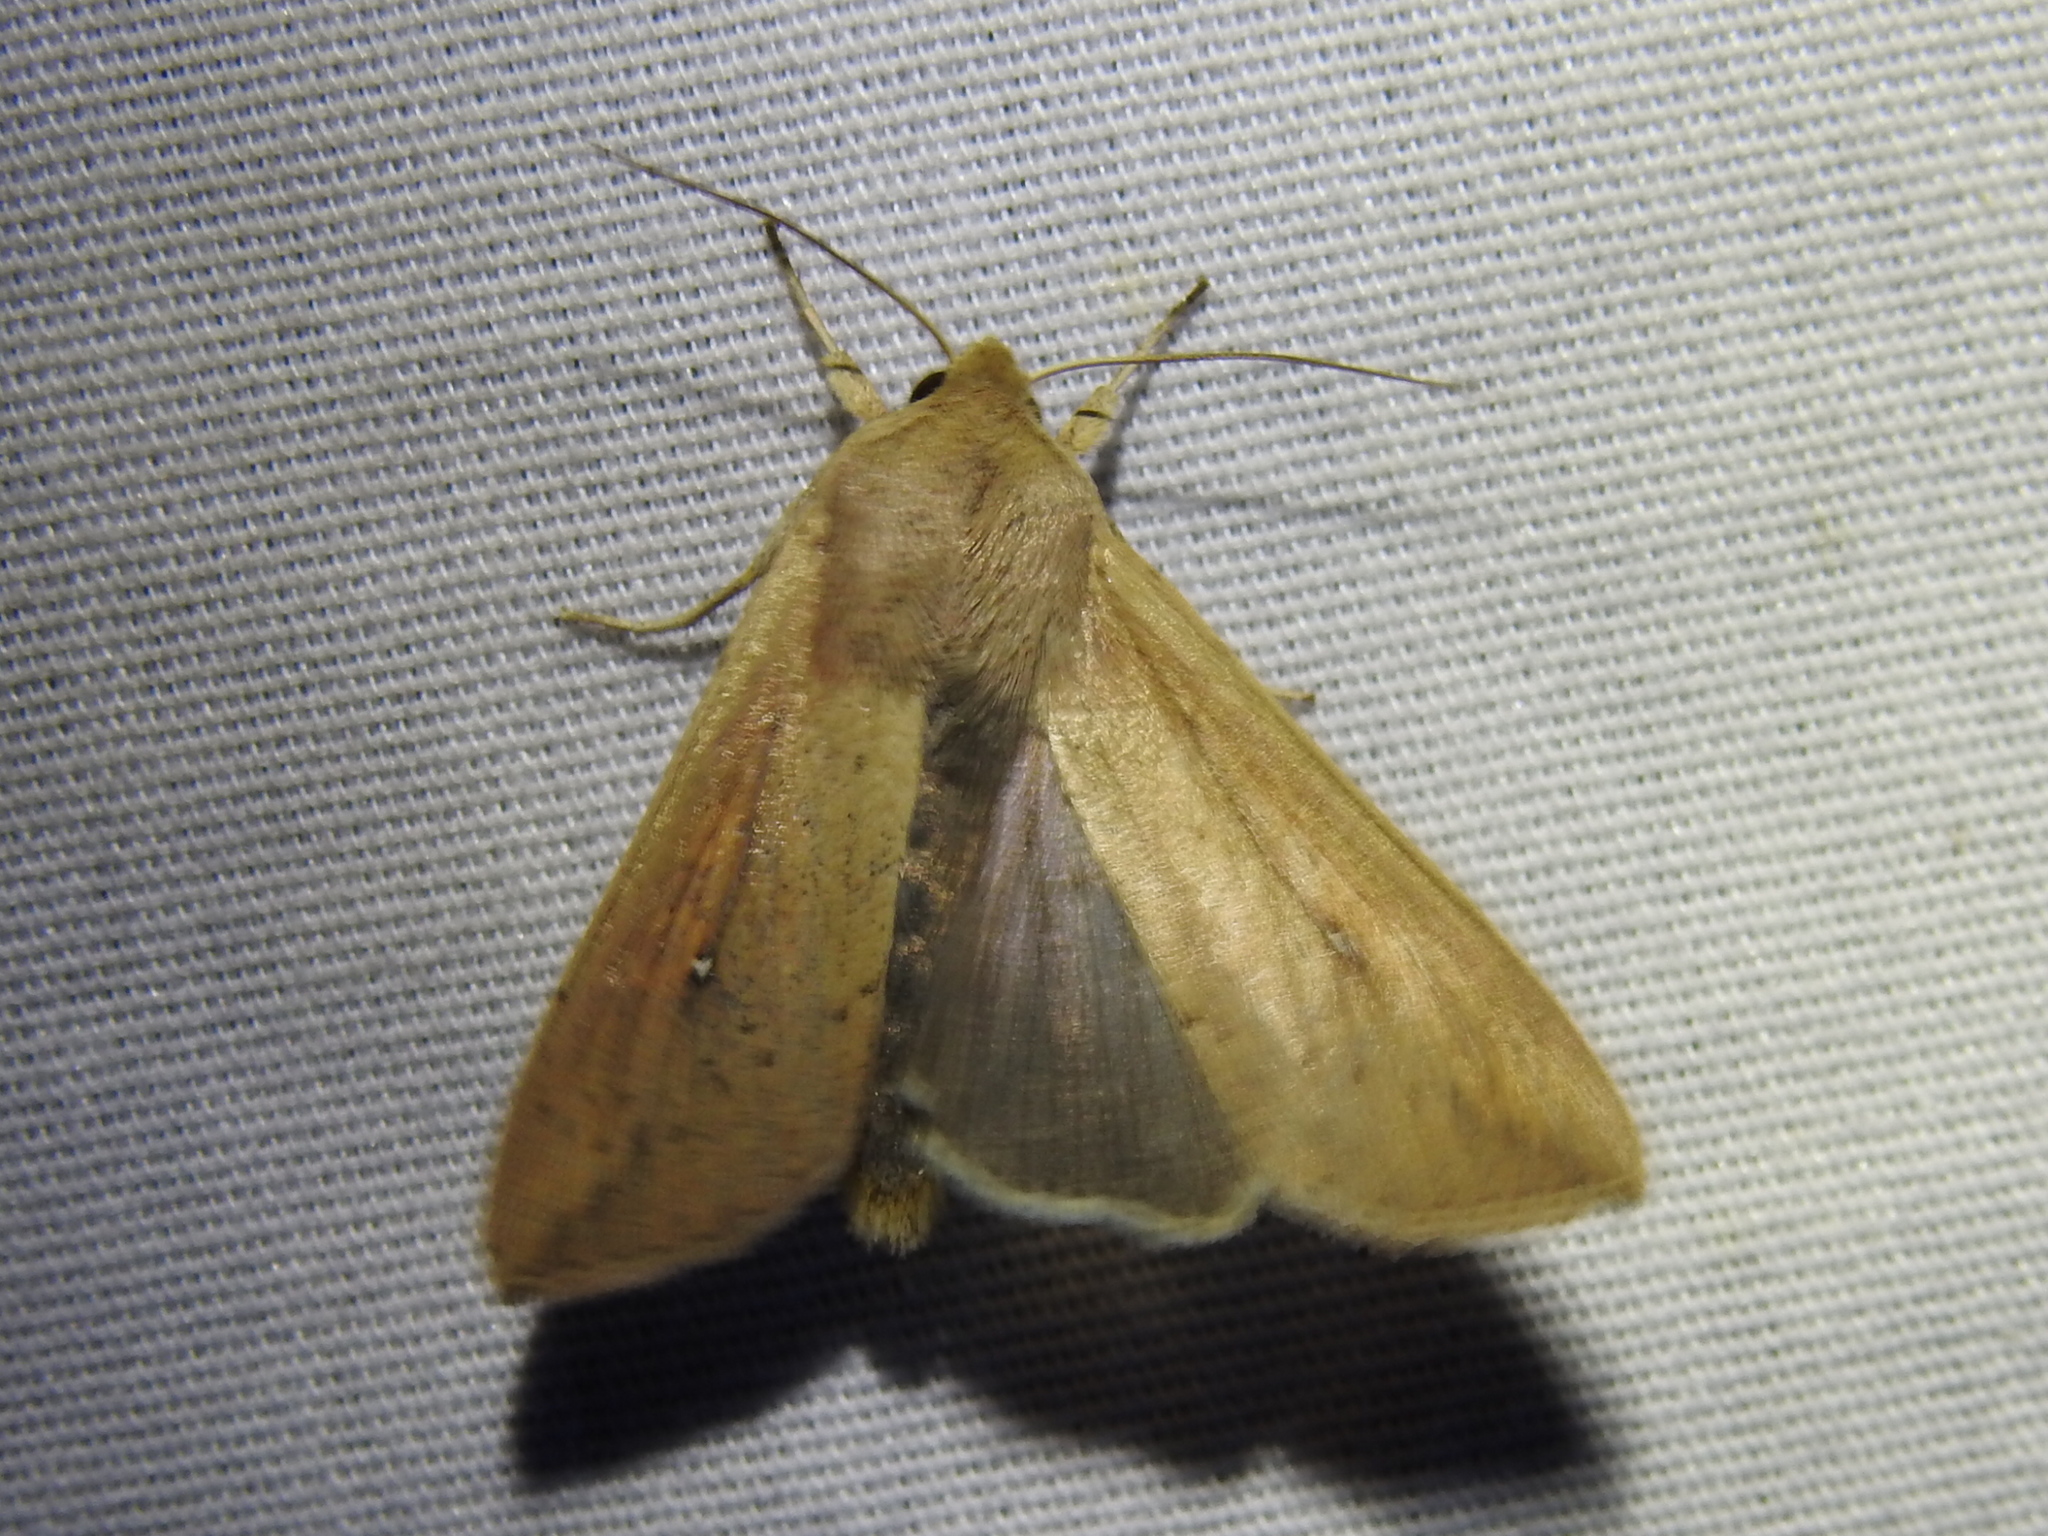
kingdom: Animalia
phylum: Arthropoda
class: Insecta
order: Lepidoptera
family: Noctuidae
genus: Mythimna
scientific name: Mythimna unipuncta
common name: White-speck
